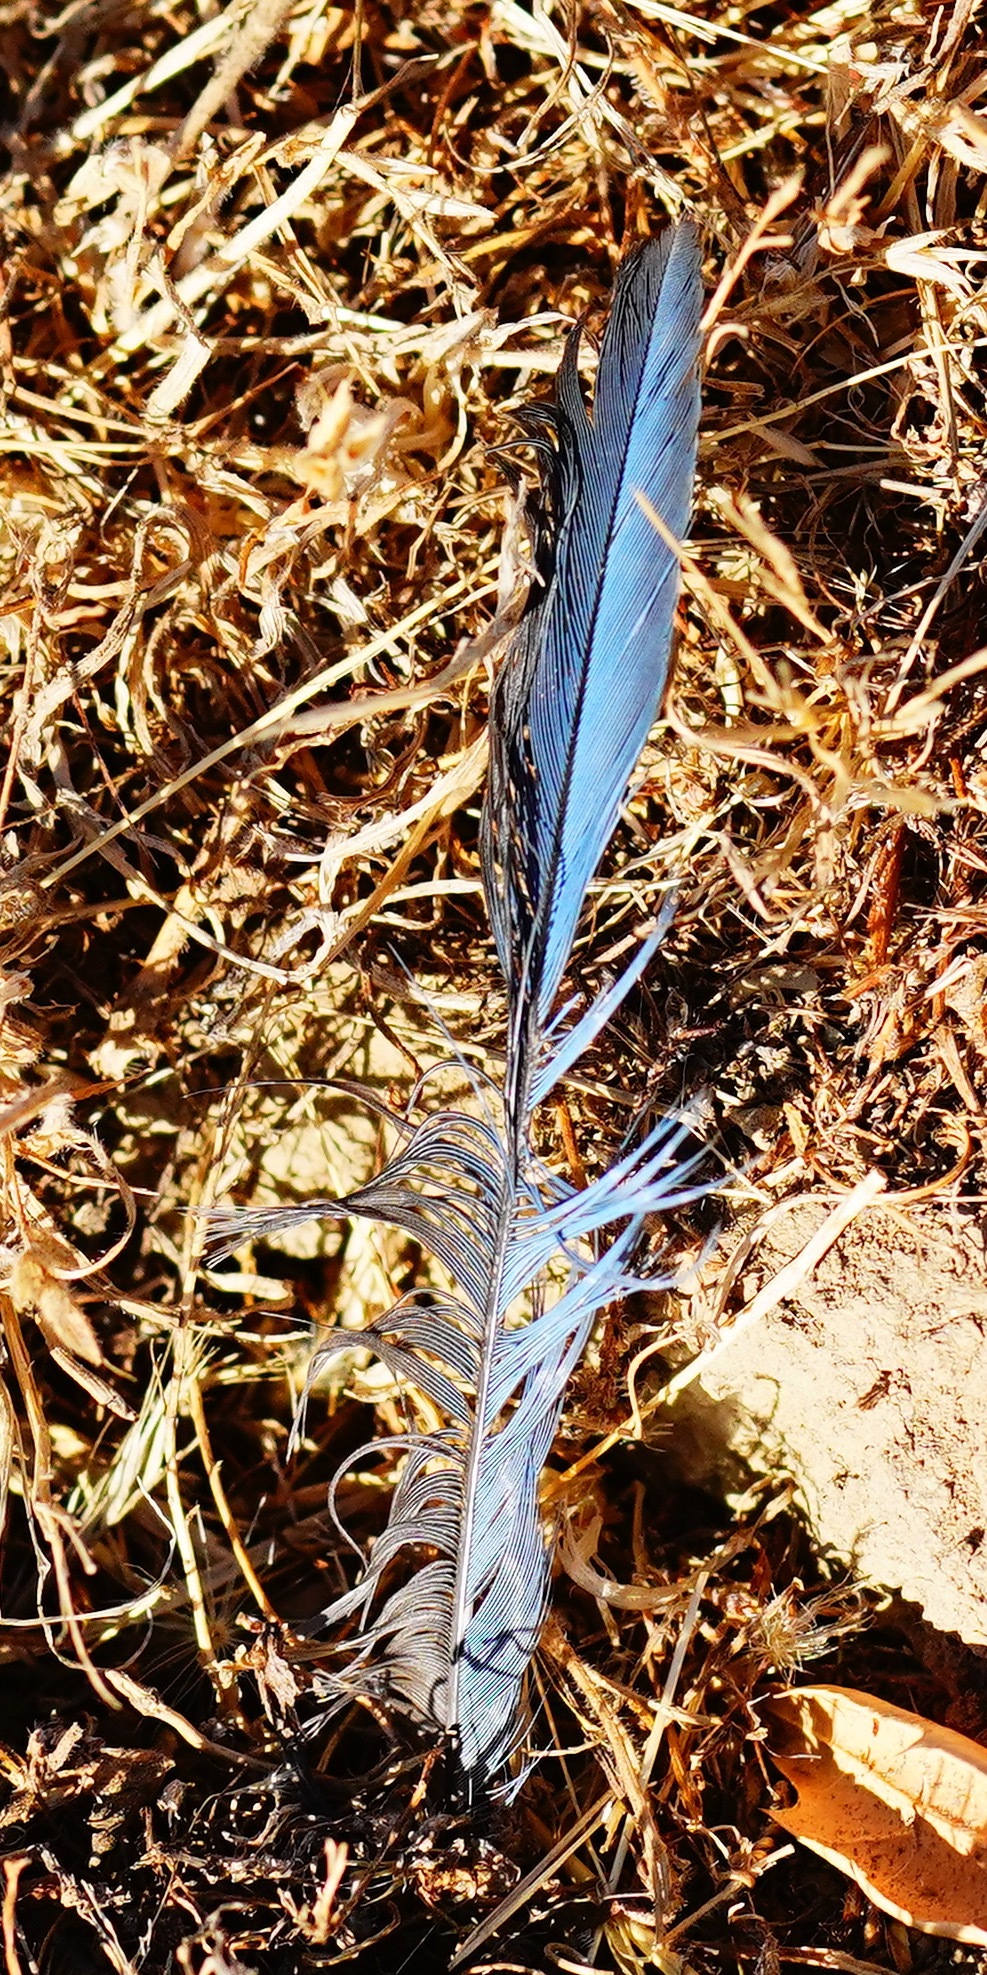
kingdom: Animalia
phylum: Chordata
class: Aves
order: Passeriformes
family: Corvidae
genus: Aphelocoma
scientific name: Aphelocoma californica
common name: California scrub-jay
